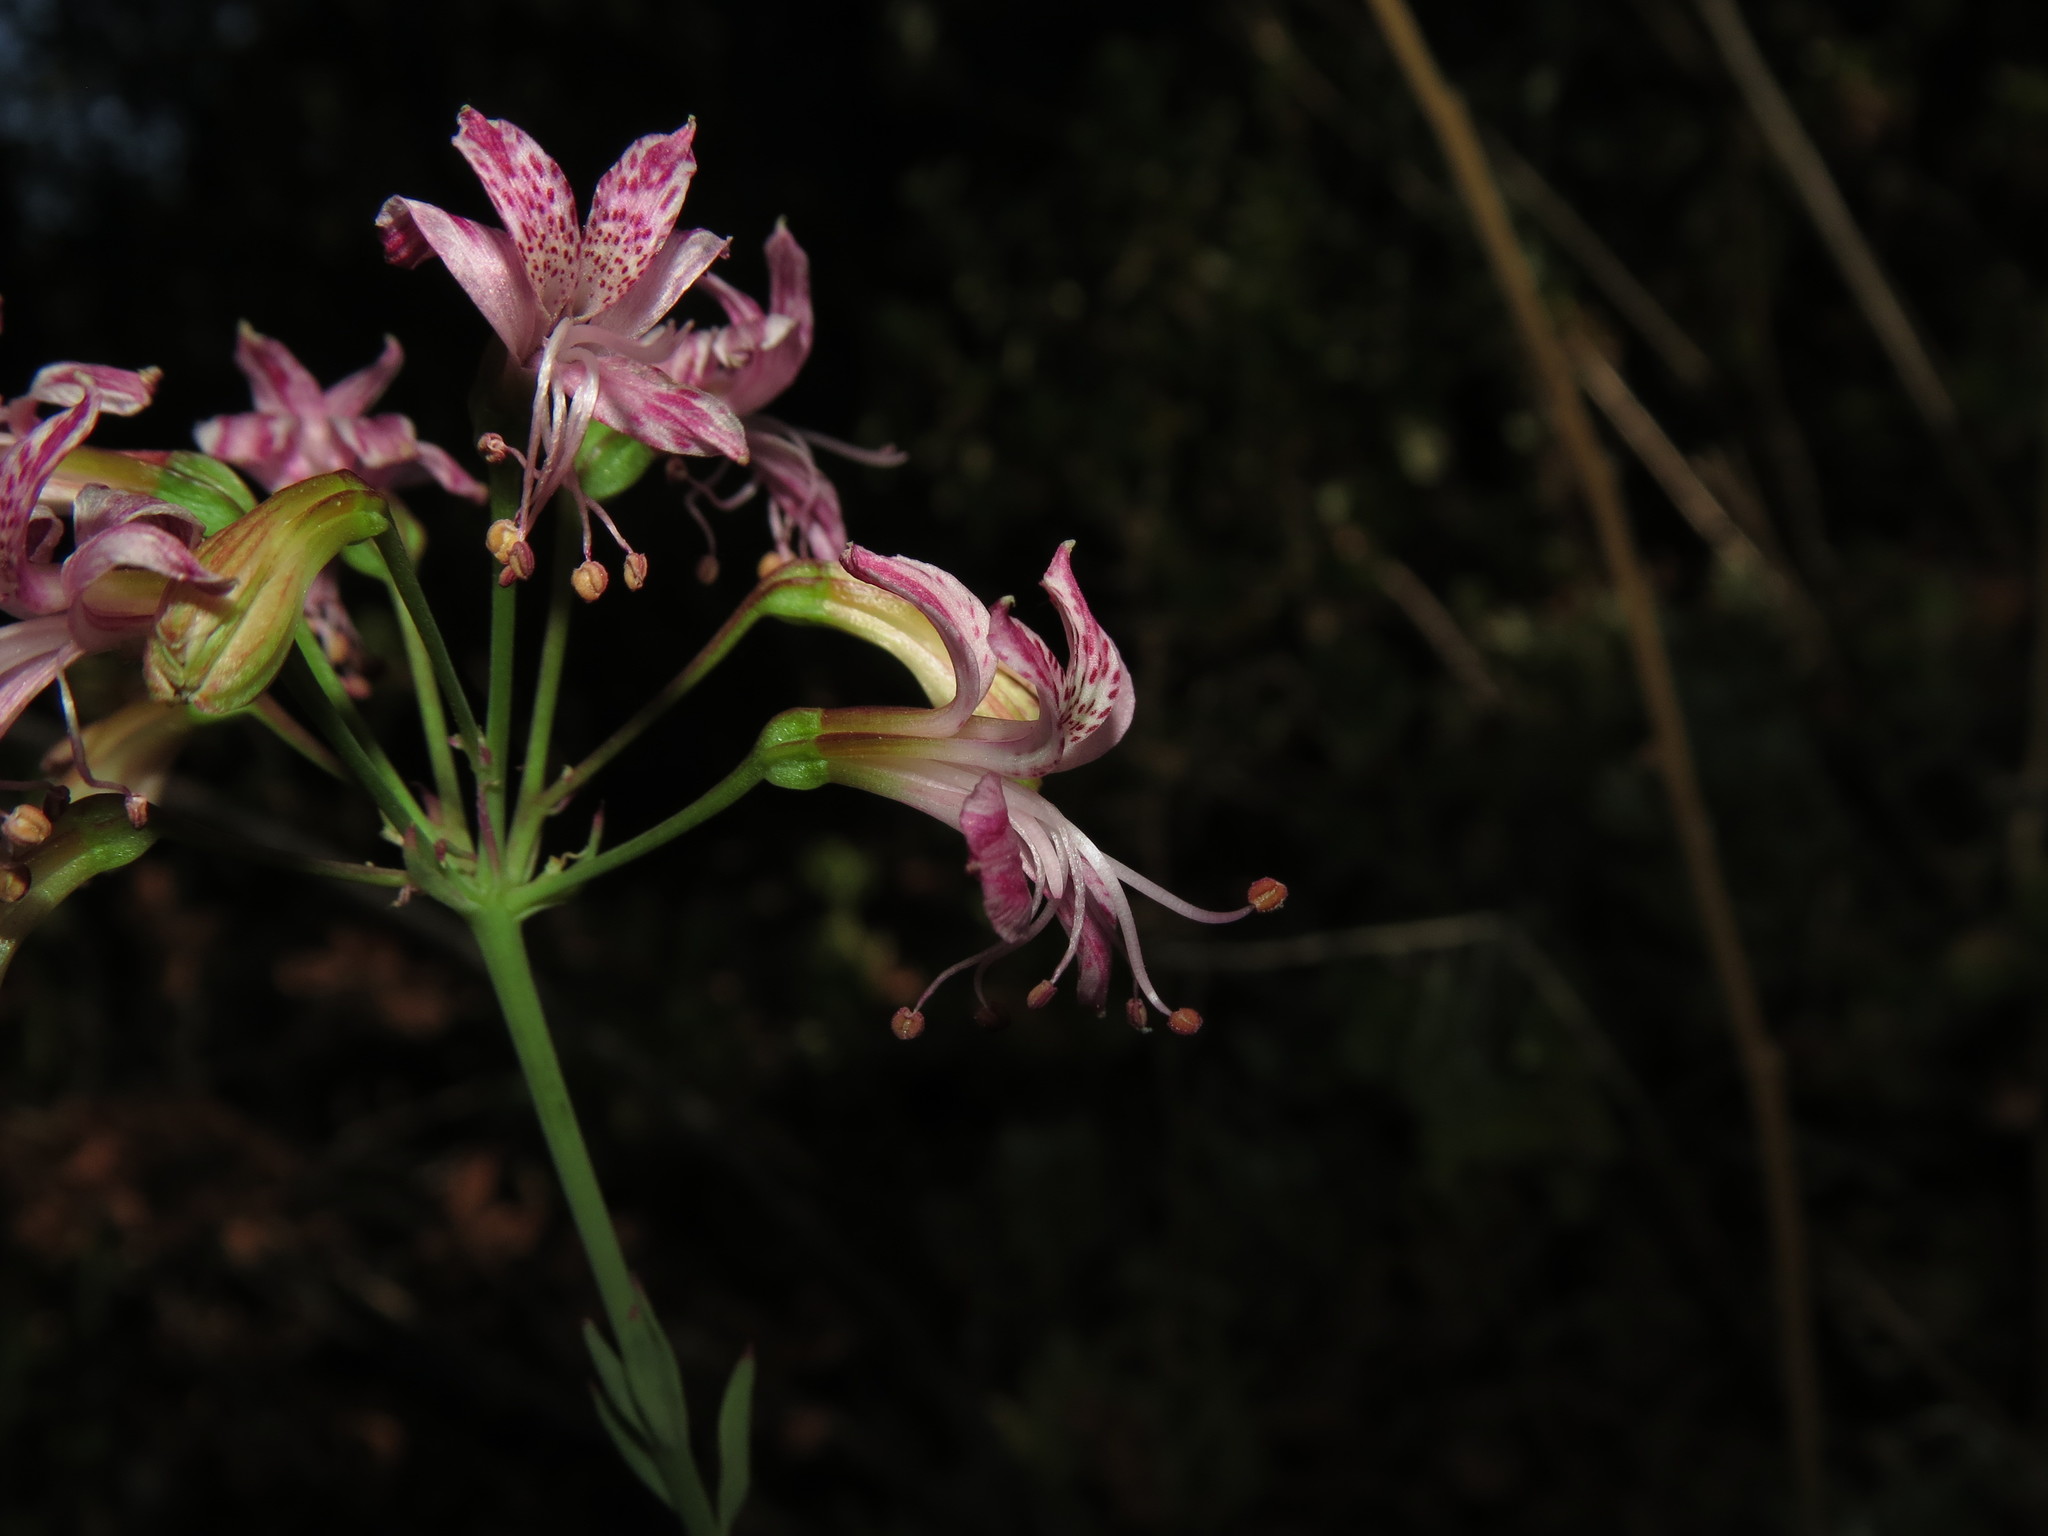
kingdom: Plantae
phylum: Tracheophyta
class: Liliopsida
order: Liliales
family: Alstroemeriaceae
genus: Alstroemeria
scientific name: Alstroemeria revoluta
